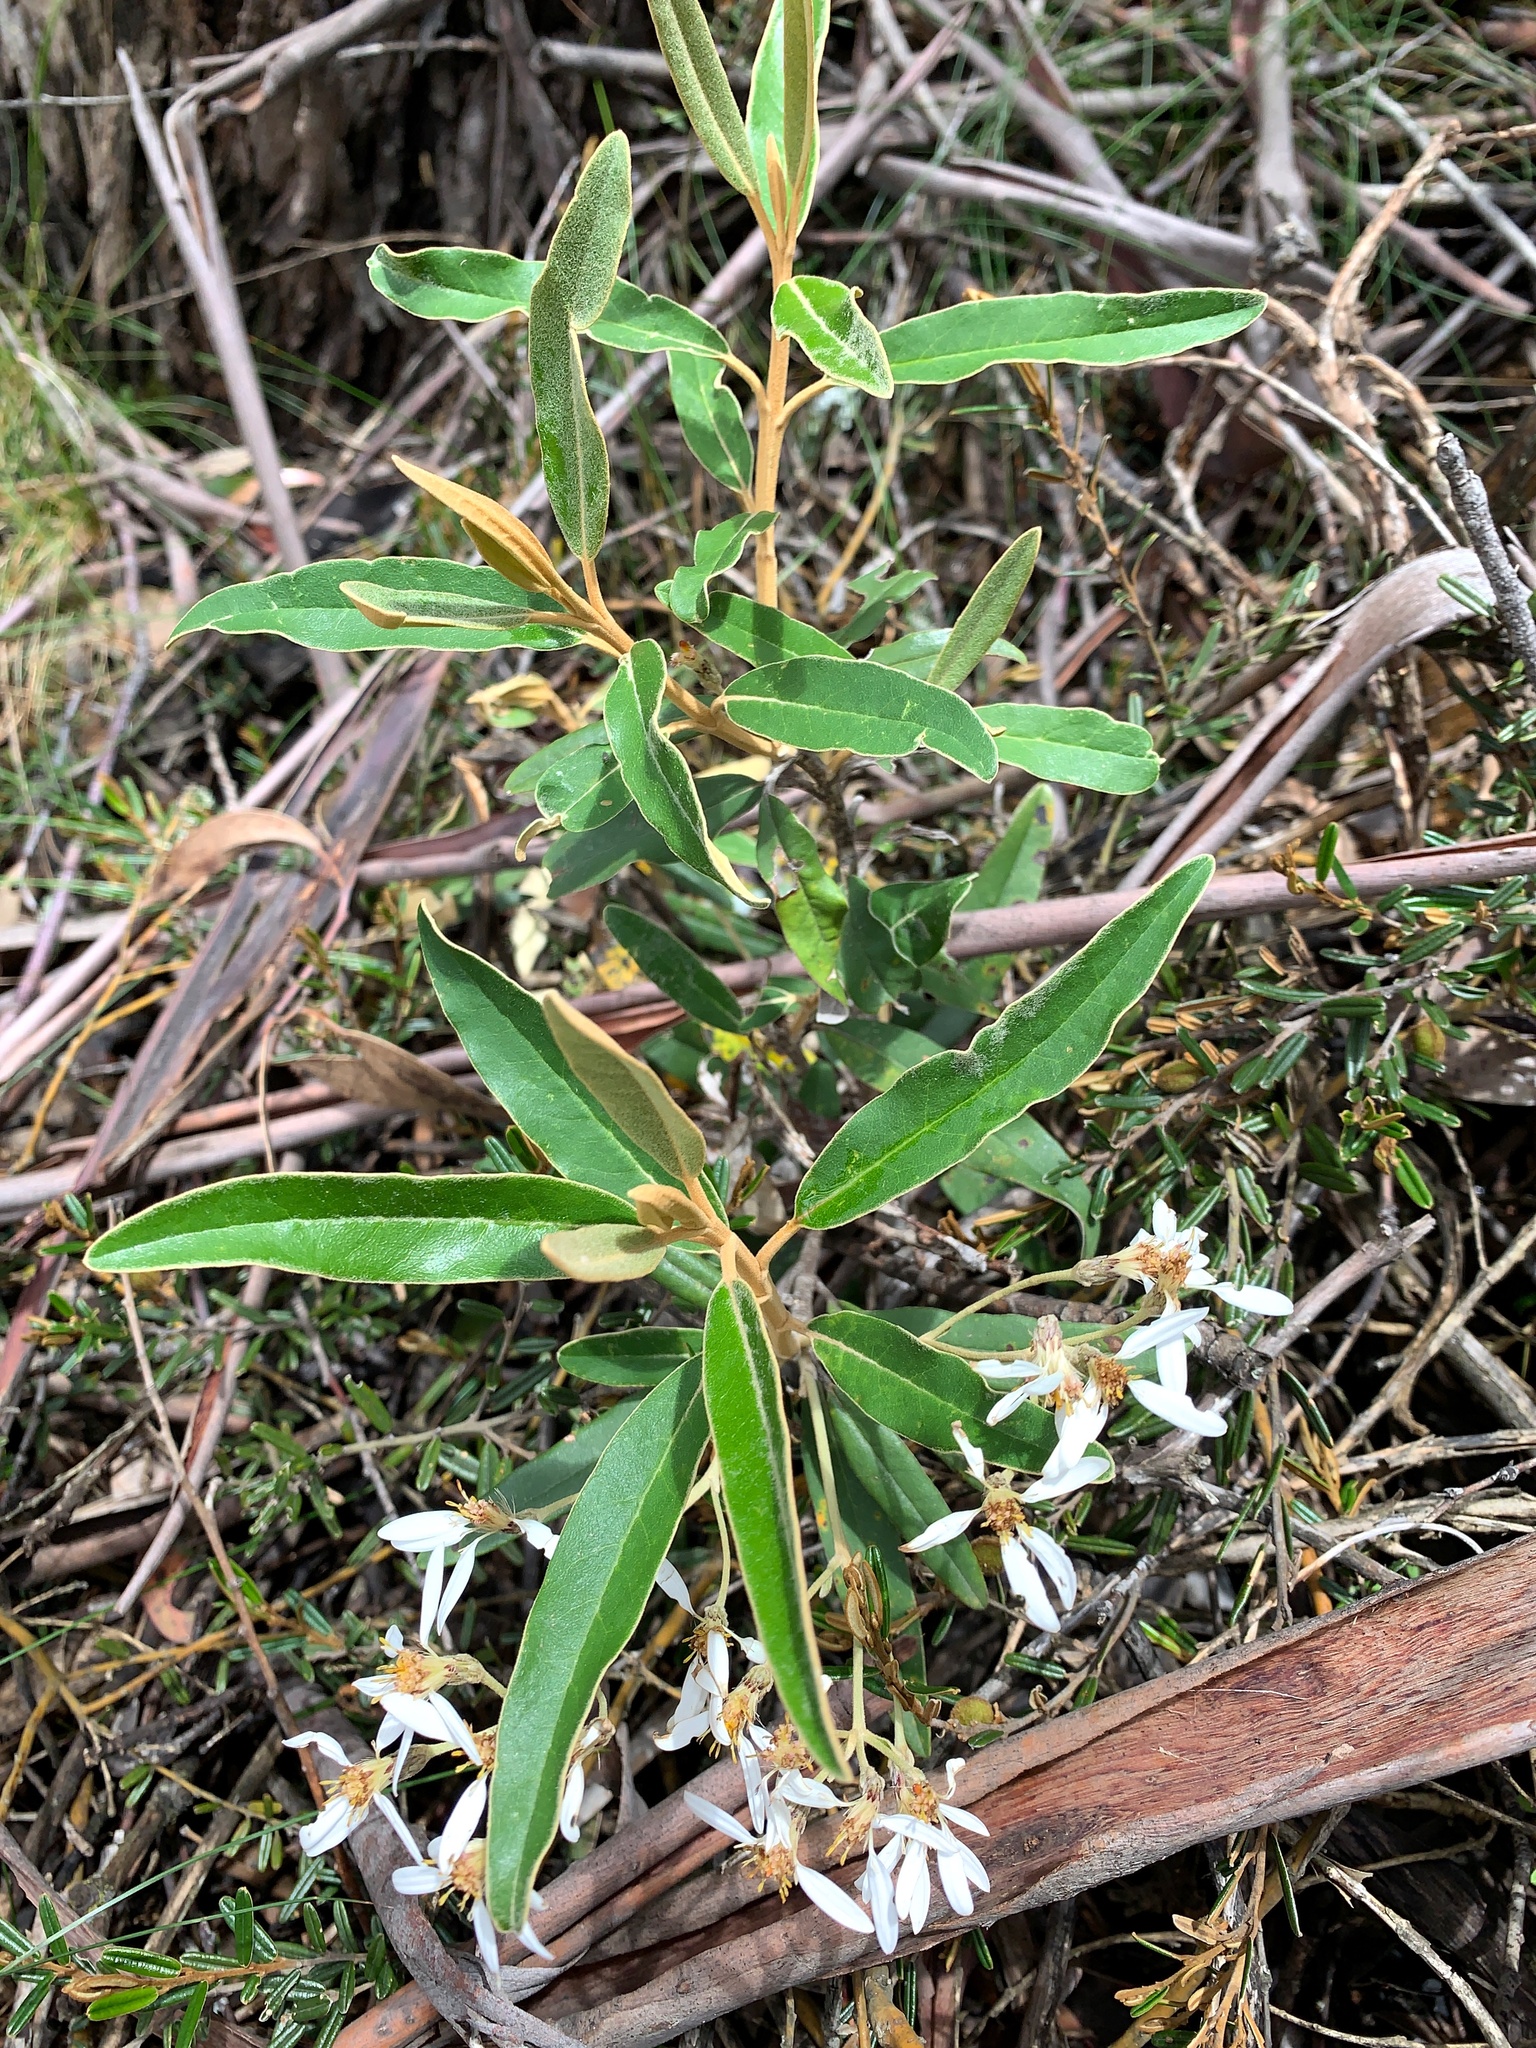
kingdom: Plantae
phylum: Tracheophyta
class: Magnoliopsida
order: Asterales
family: Asteraceae
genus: Olearia
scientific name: Olearia megalophylla
